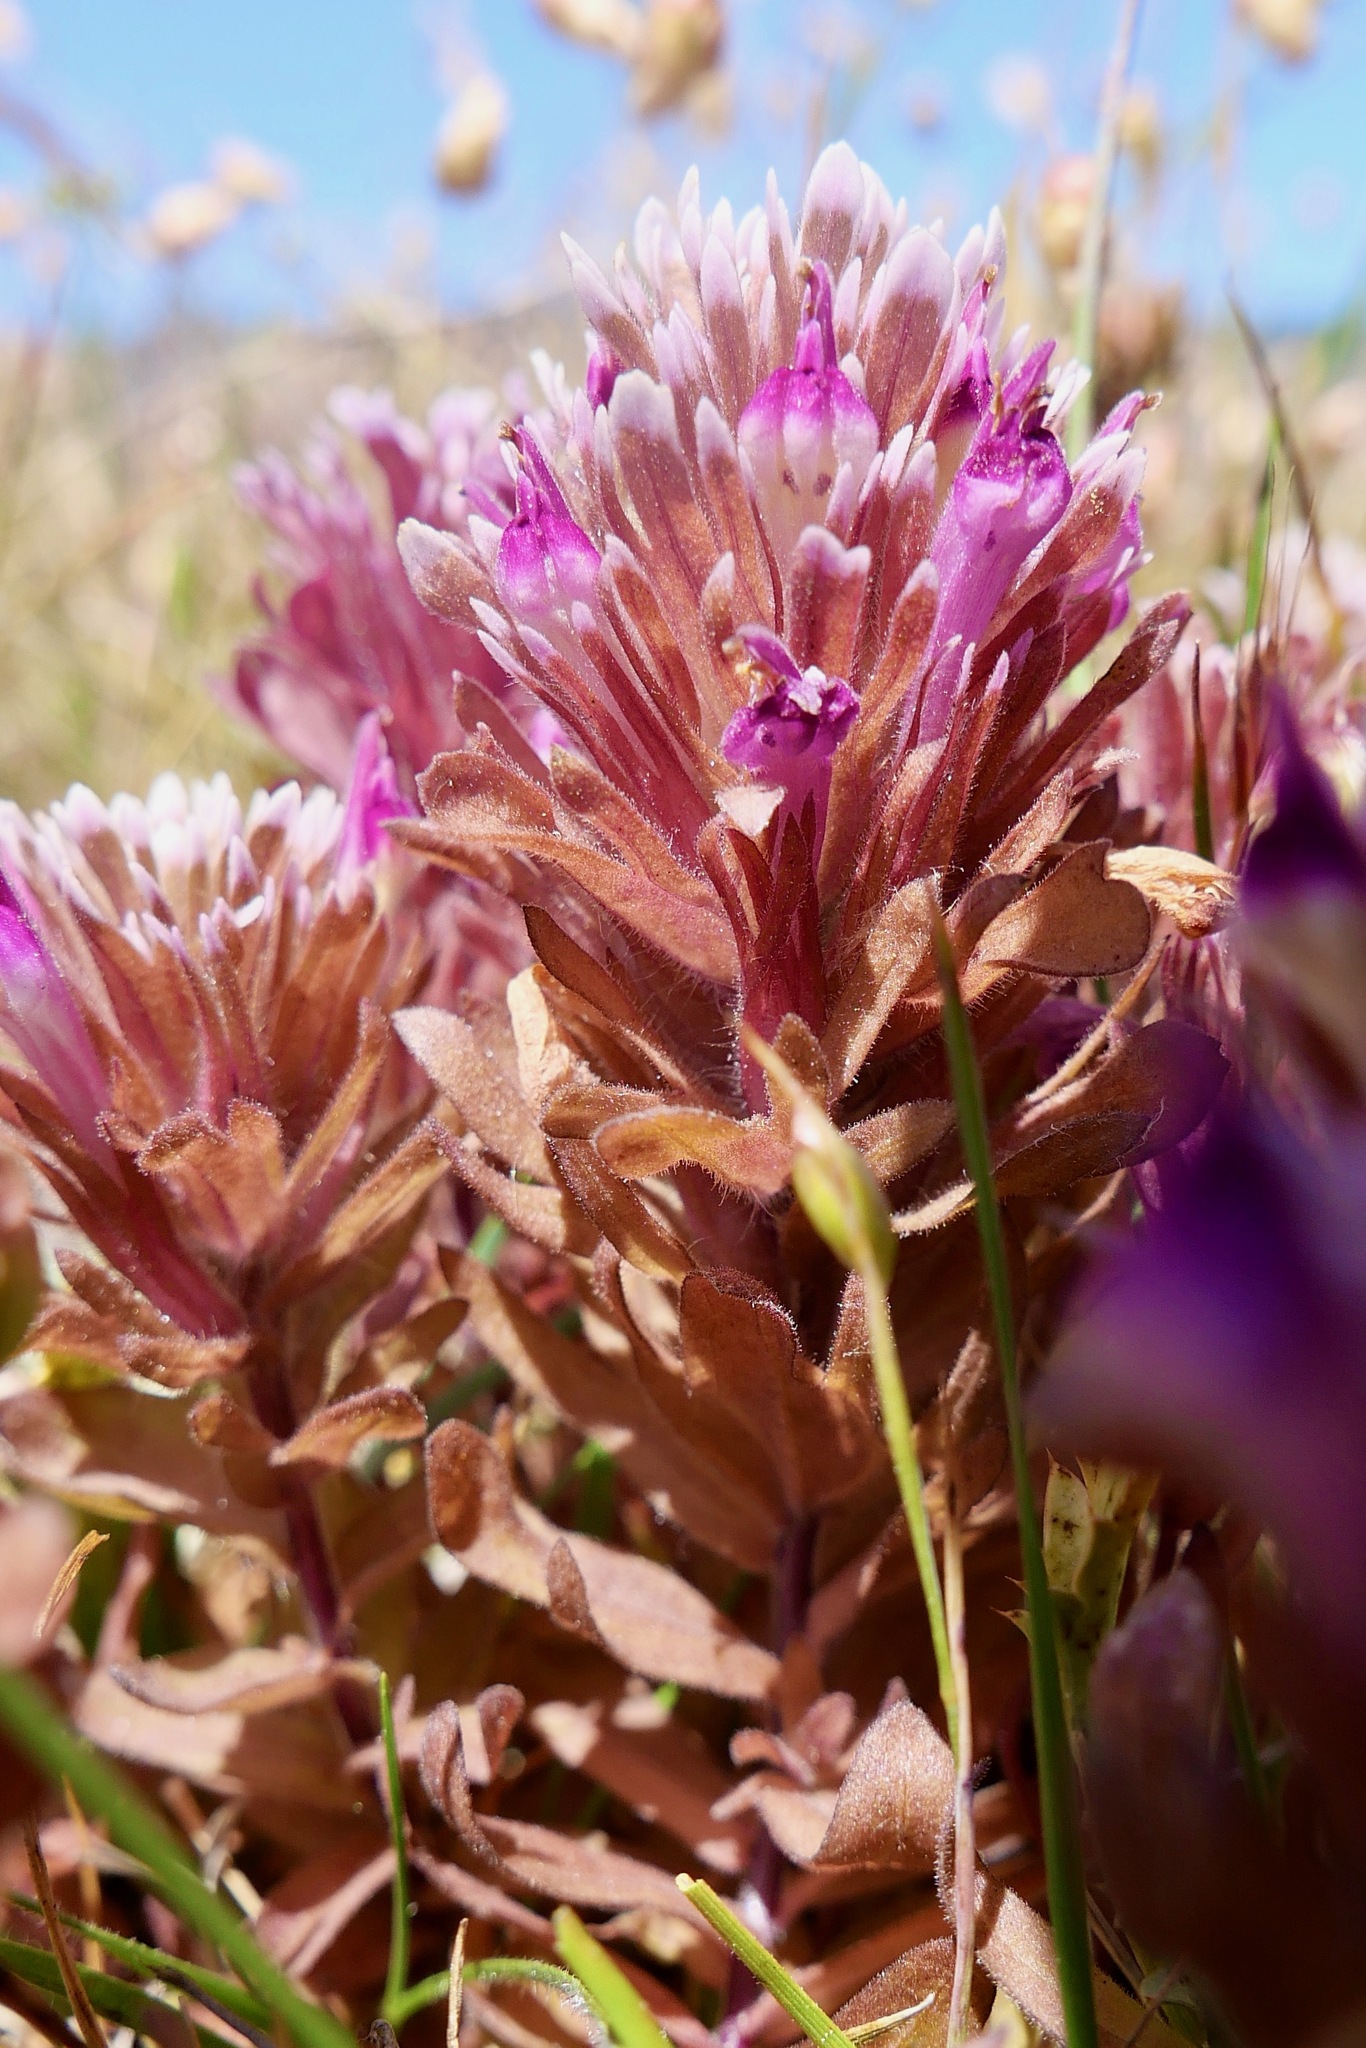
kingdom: Plantae
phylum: Tracheophyta
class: Magnoliopsida
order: Lamiales
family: Orobanchaceae
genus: Castilleja
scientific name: Castilleja ambigua
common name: Johnny-nip
